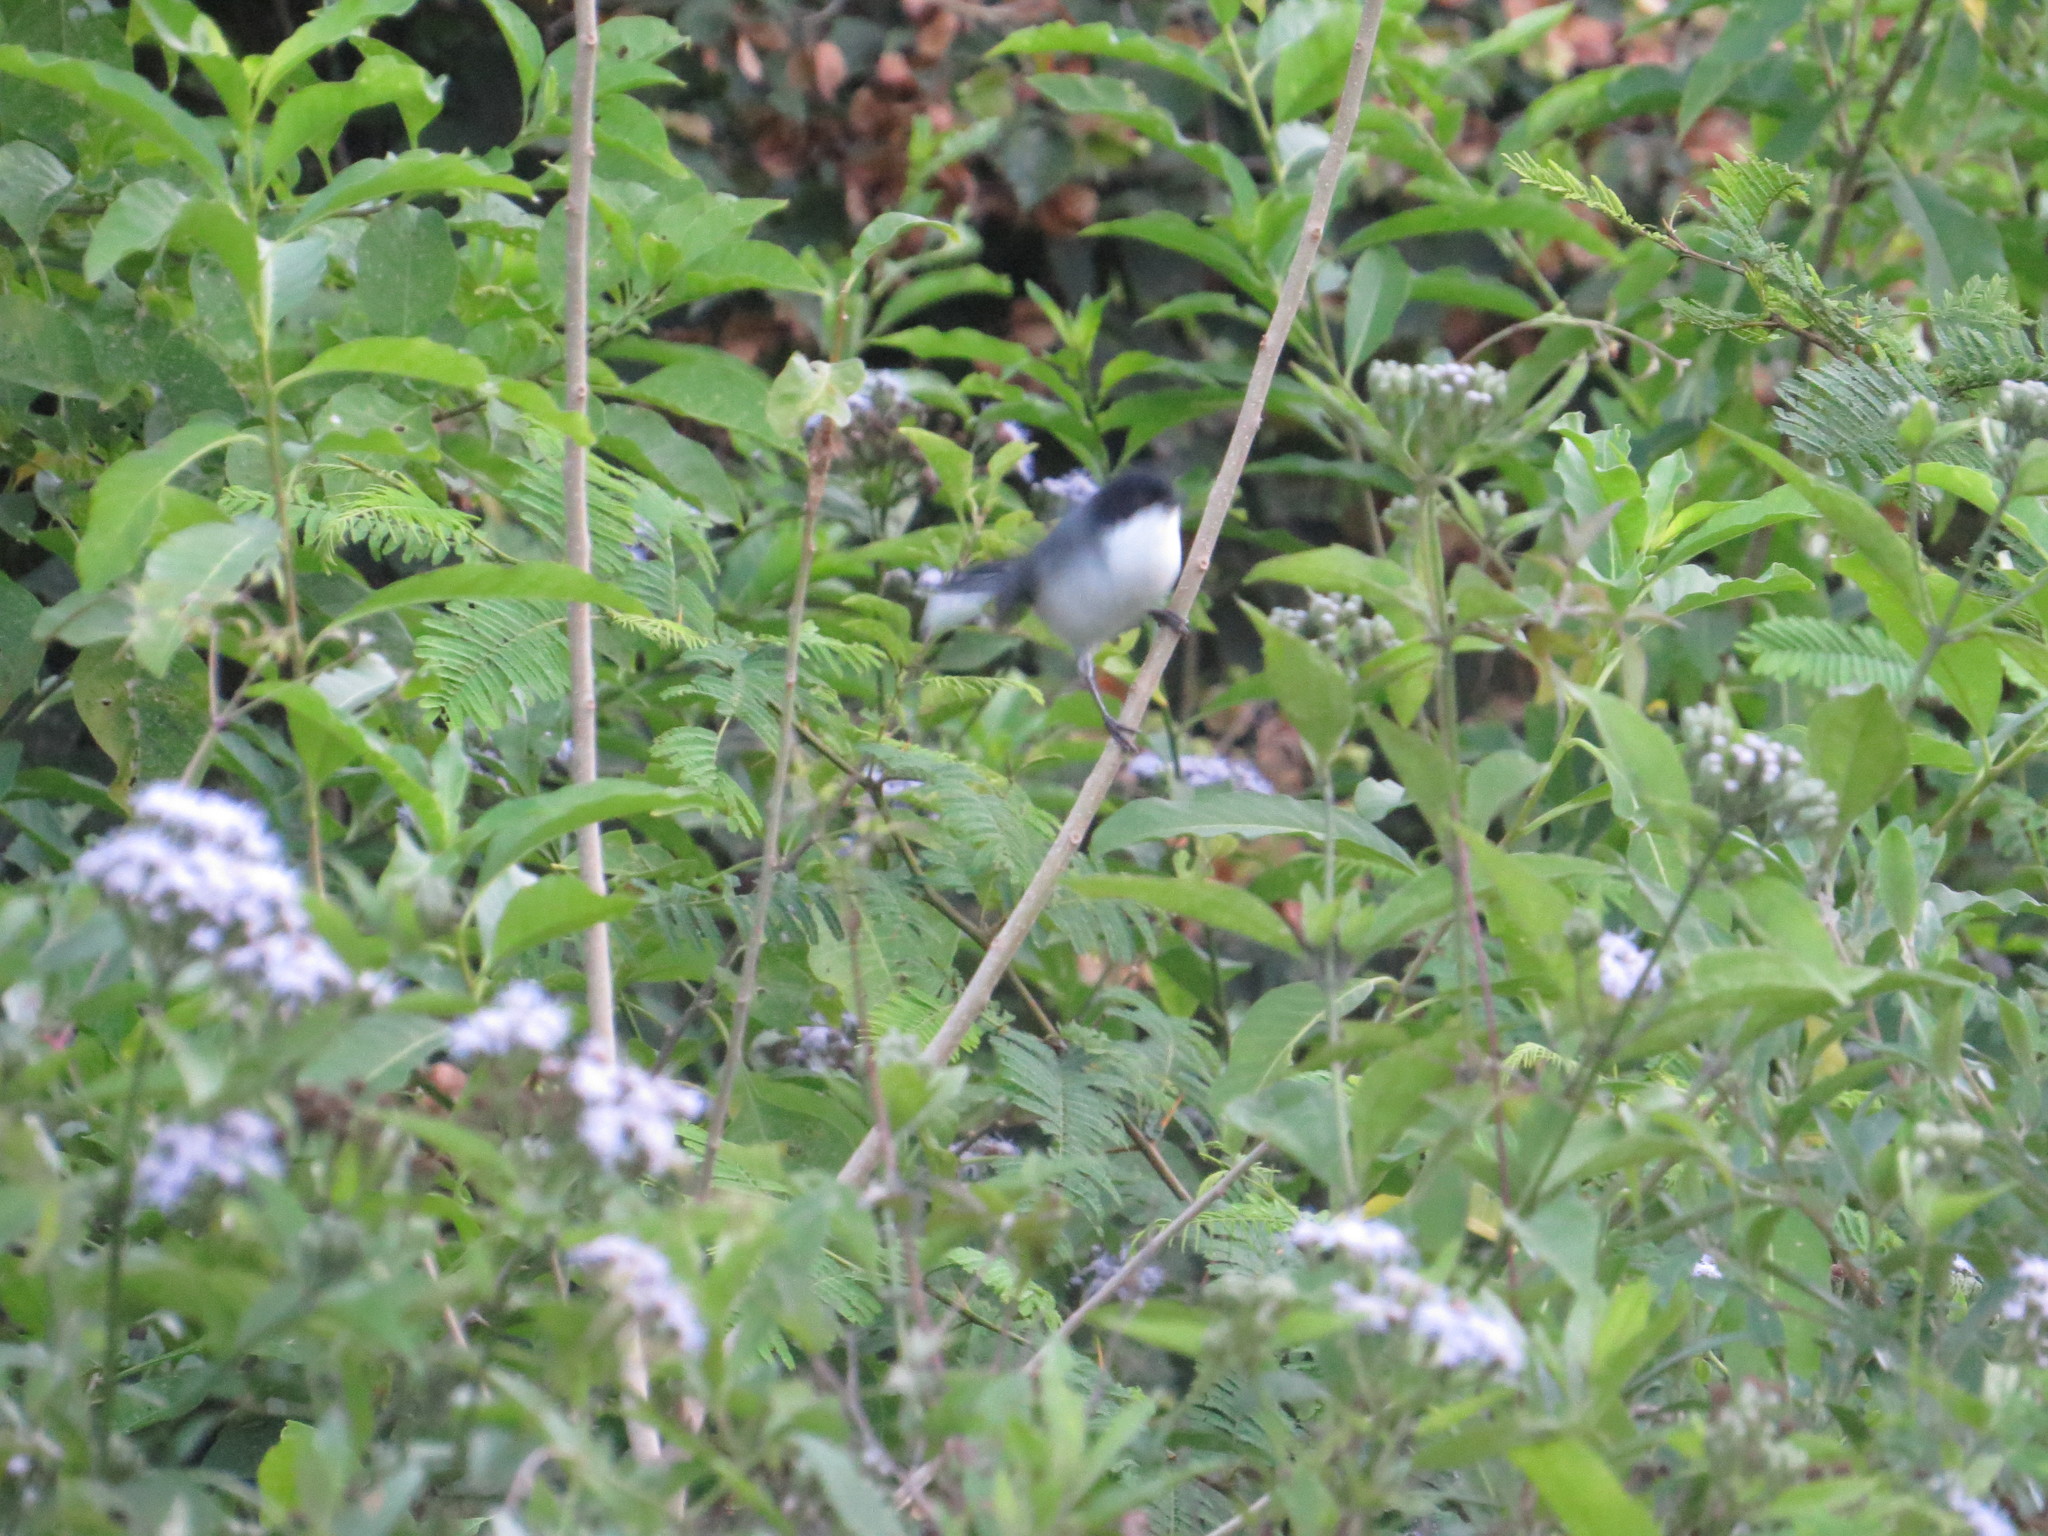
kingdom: Animalia
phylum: Chordata
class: Aves
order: Passeriformes
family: Thraupidae
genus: Microspingus
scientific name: Microspingus melanoleucus
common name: Black-capped warbling-finch
